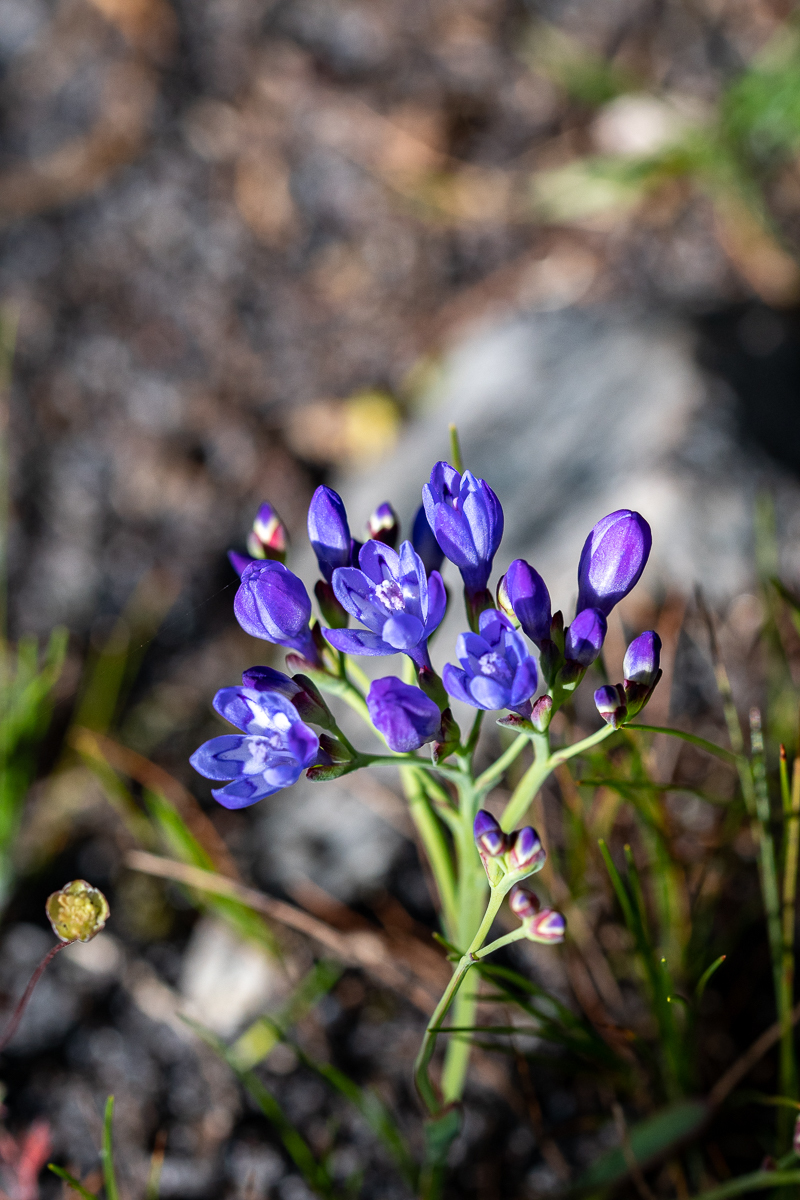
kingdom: Plantae
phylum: Tracheophyta
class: Liliopsida
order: Asparagales
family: Iridaceae
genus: Codonorhiza
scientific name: Codonorhiza corymbosa
